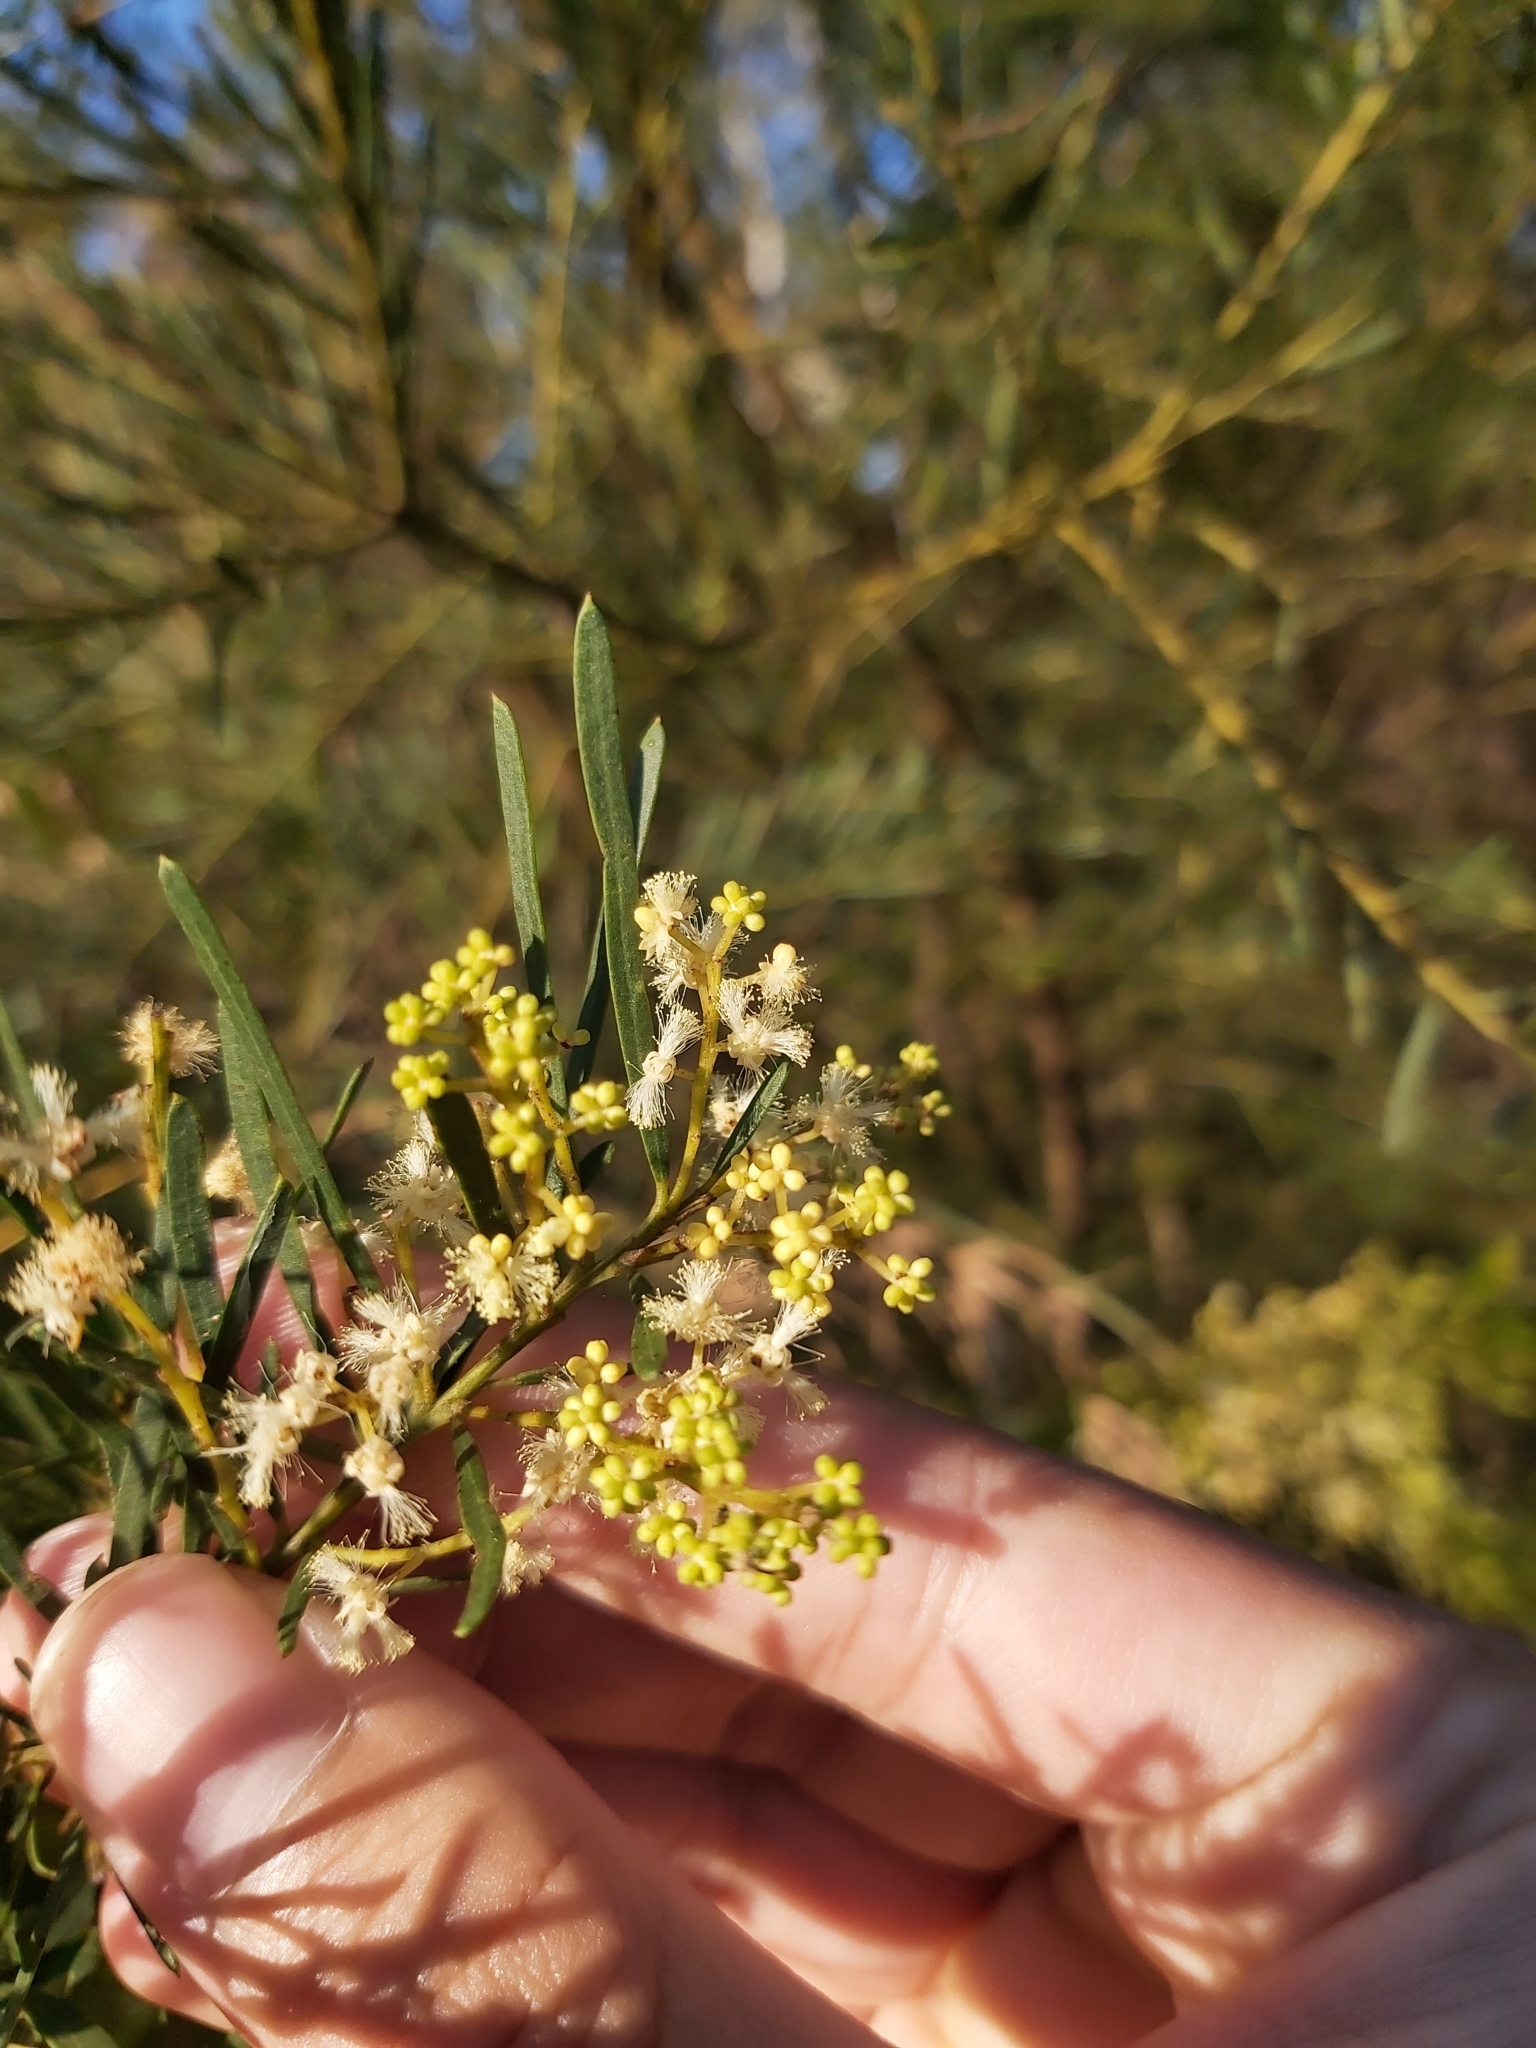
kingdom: Plantae
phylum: Tracheophyta
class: Magnoliopsida
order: Fabales
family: Fabaceae
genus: Acacia
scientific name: Acacia linifolia
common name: White wattle
